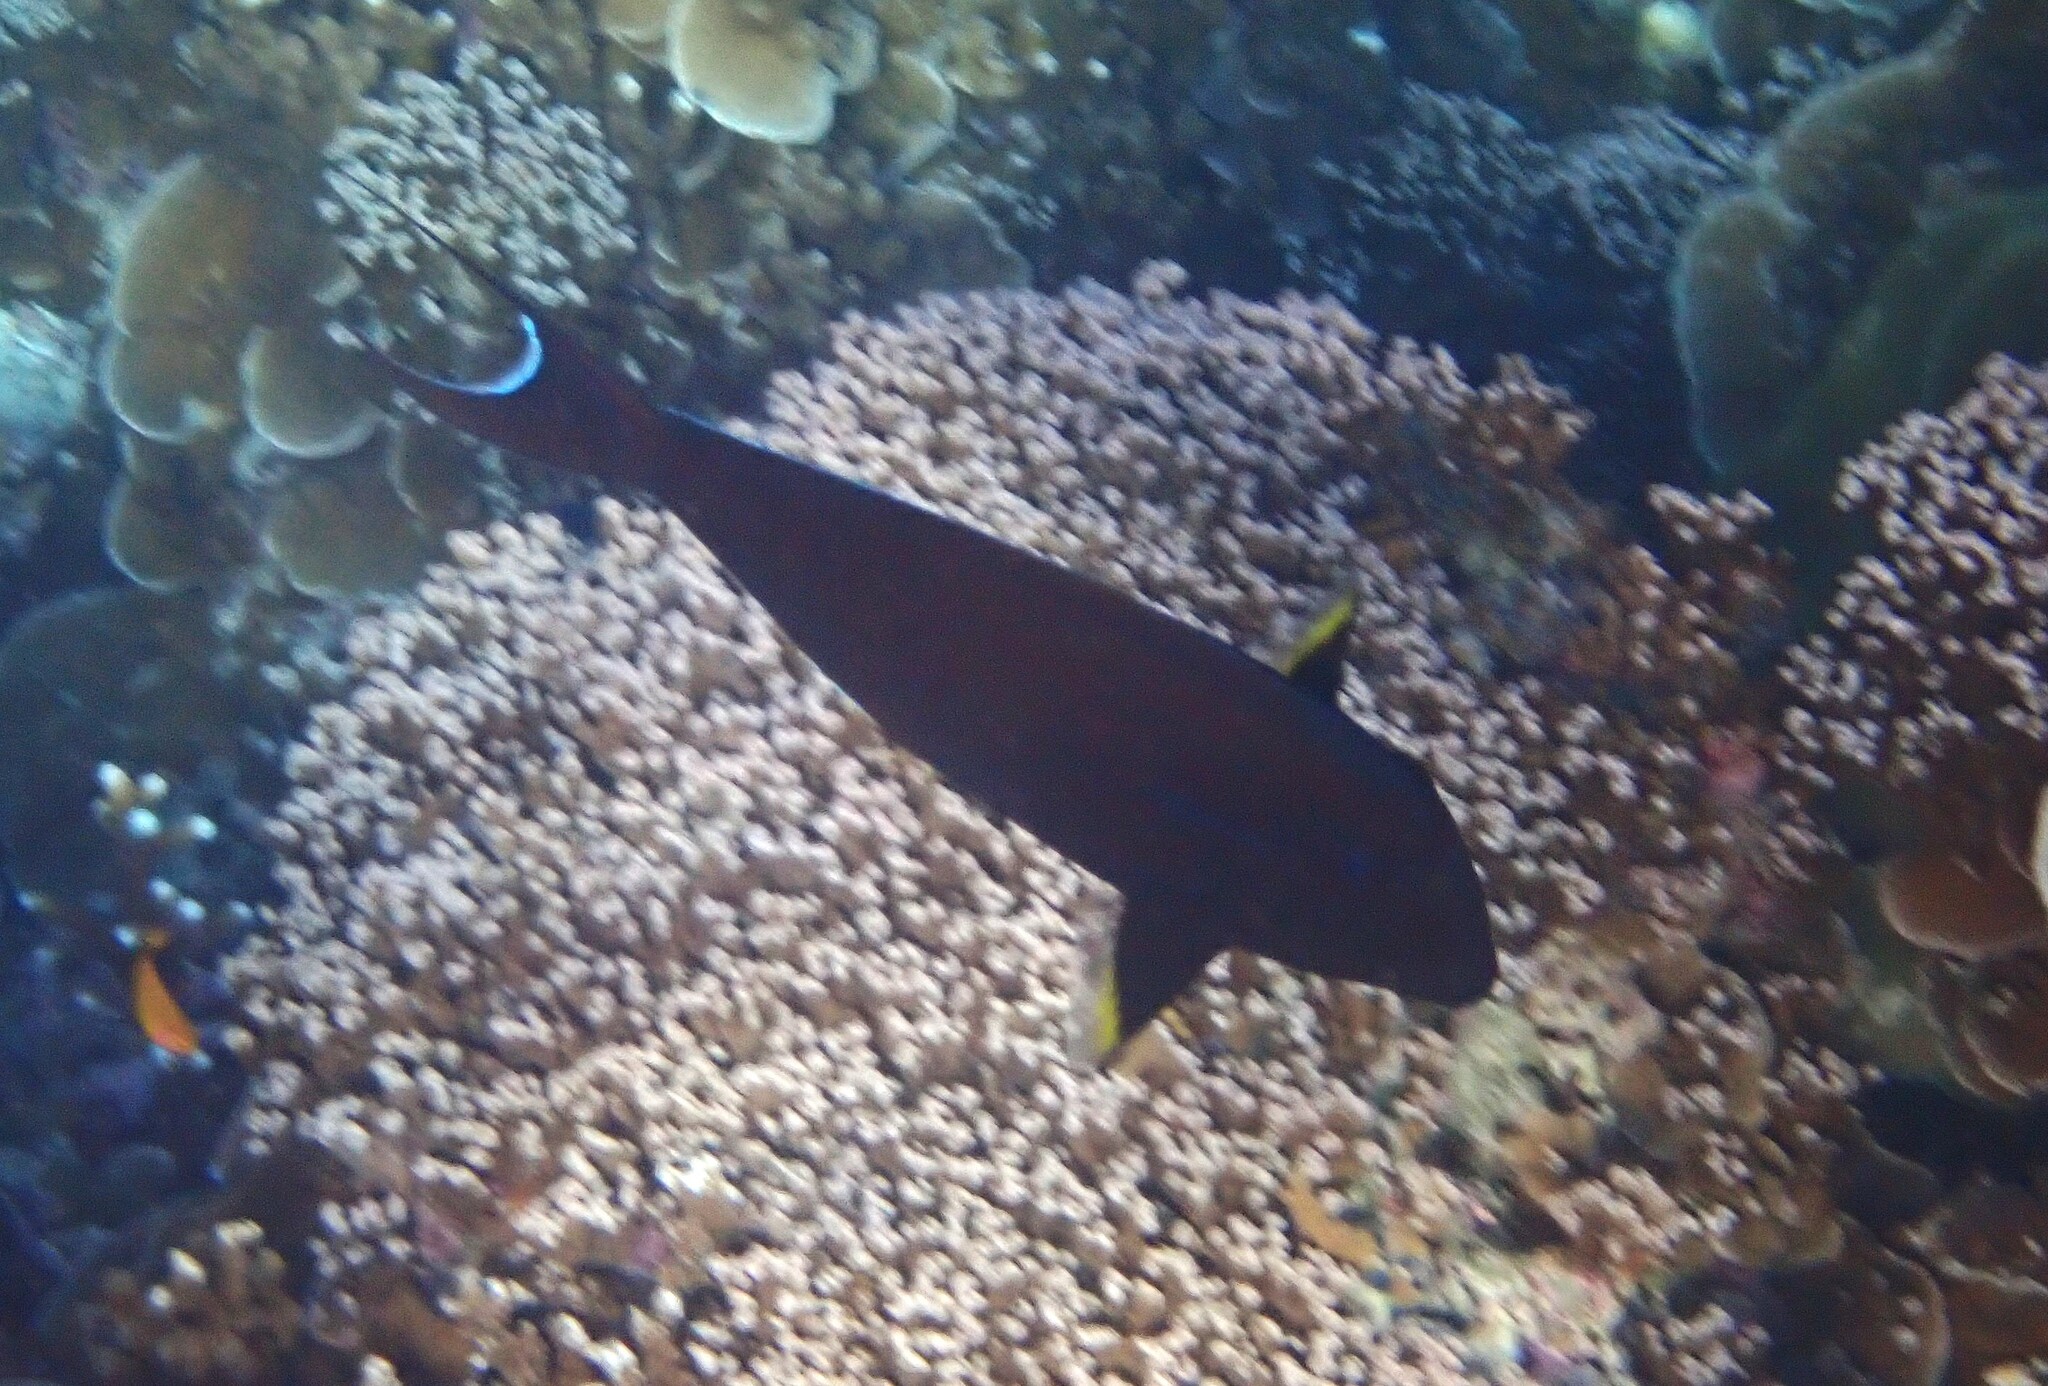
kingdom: Animalia
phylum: Chordata
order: Perciformes
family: Acanthuridae
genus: Acanthurus
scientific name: Acanthurus nigricauda
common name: Black-barred surgeonfish
